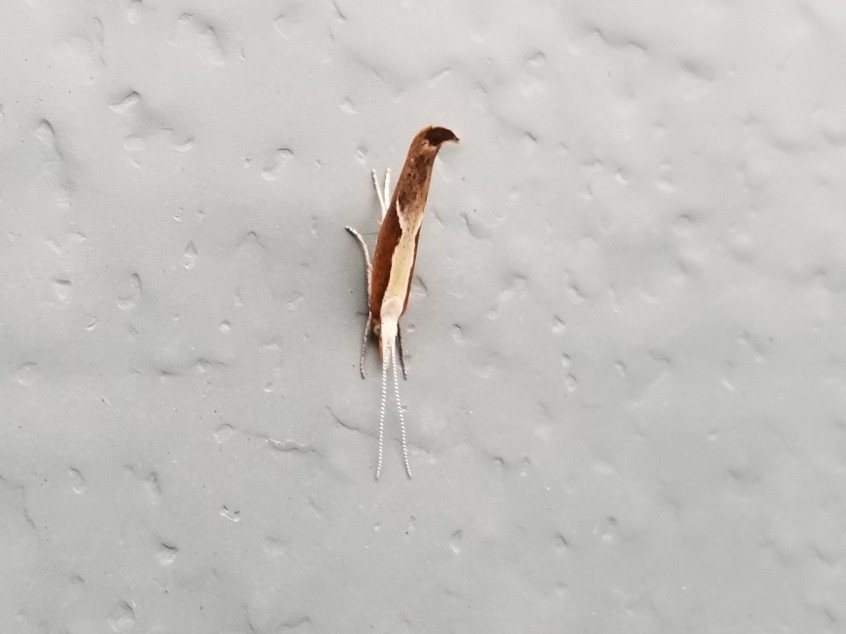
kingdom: Animalia
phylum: Arthropoda
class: Insecta
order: Lepidoptera
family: Ypsolophidae
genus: Ypsolopha
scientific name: Ypsolopha dentella
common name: Honeysuckle moth
